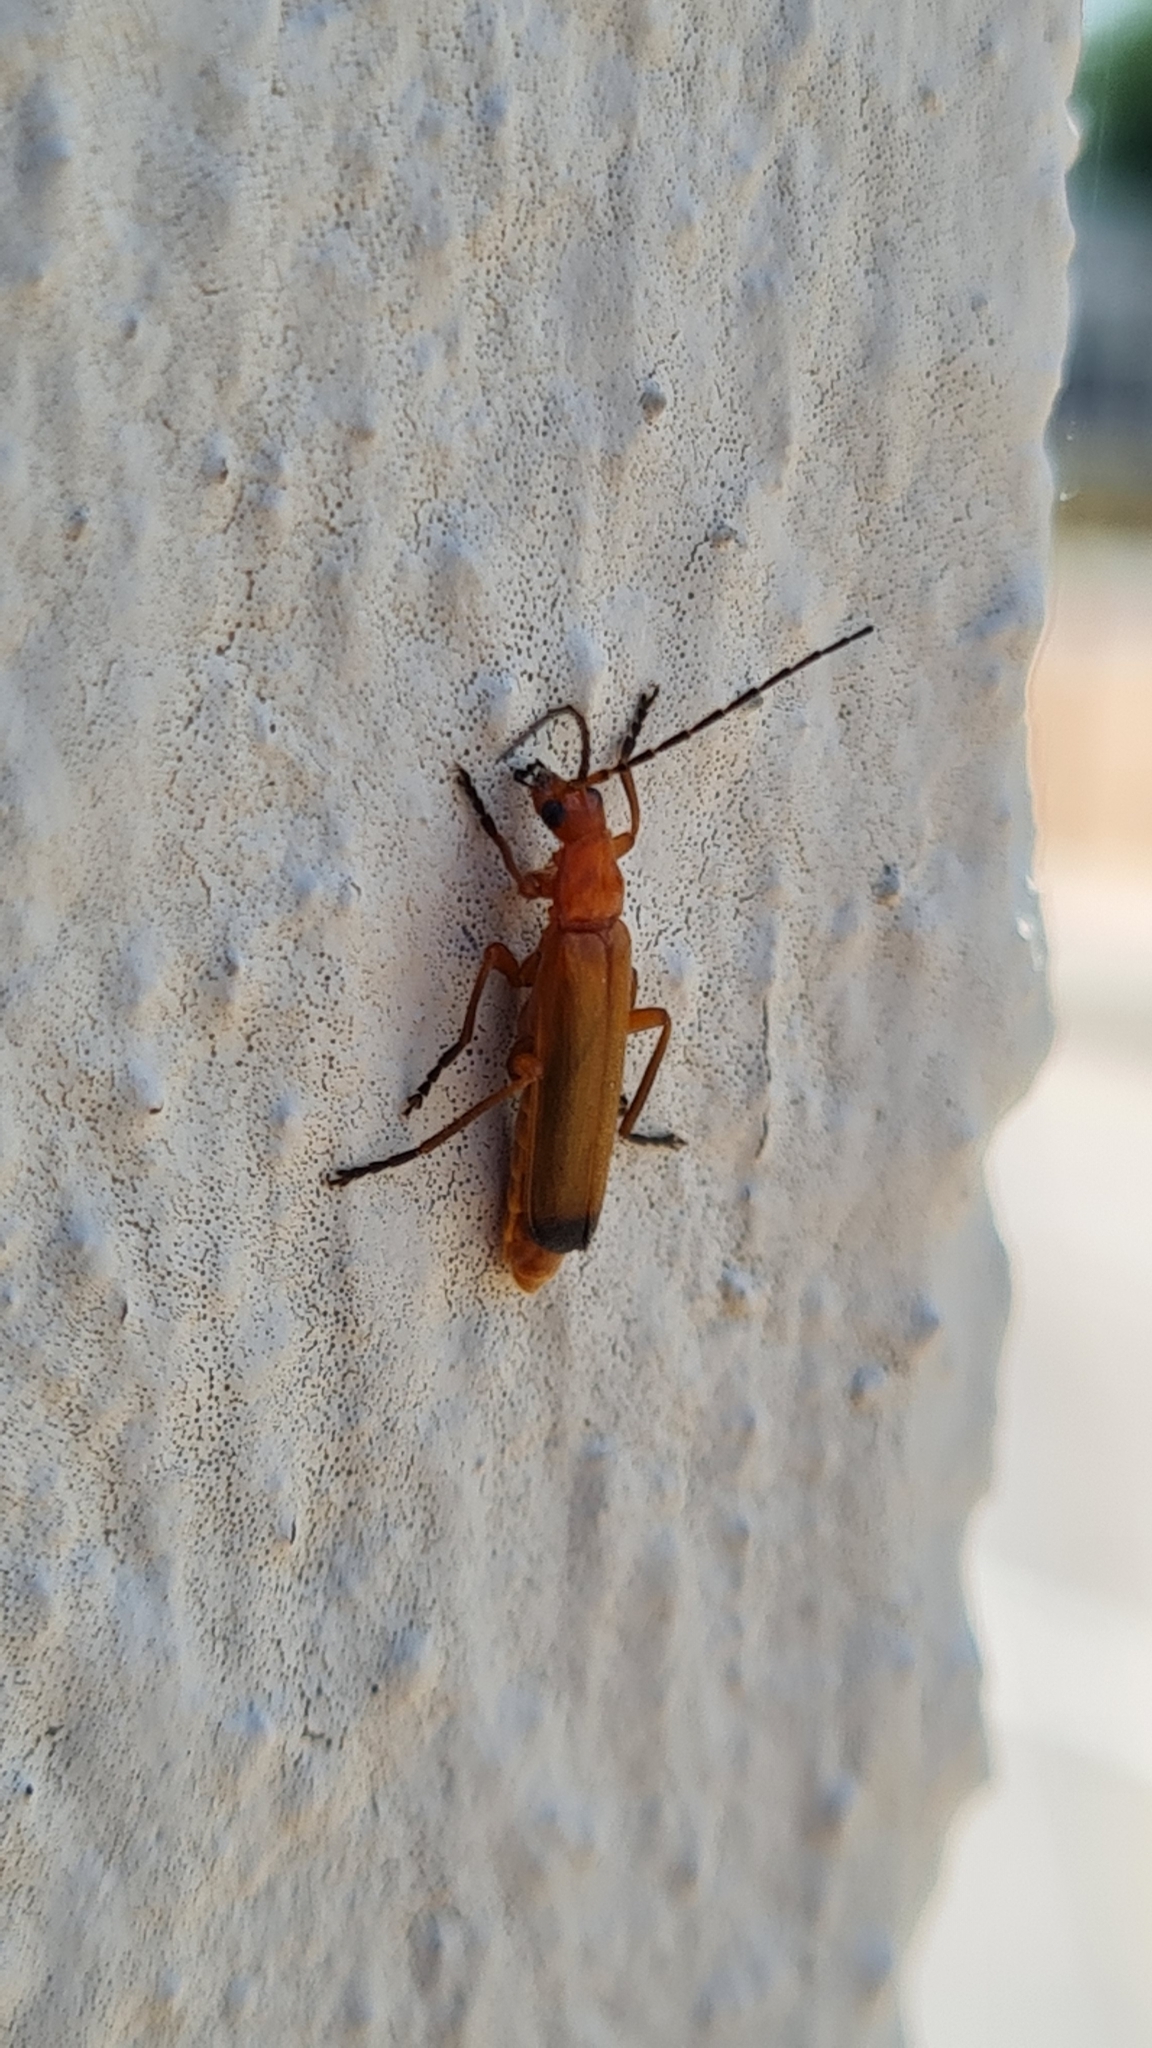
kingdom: Animalia
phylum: Arthropoda
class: Insecta
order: Coleoptera
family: Cantharidae
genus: Rhagonycha
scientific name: Rhagonycha fulva
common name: Common red soldier beetle
